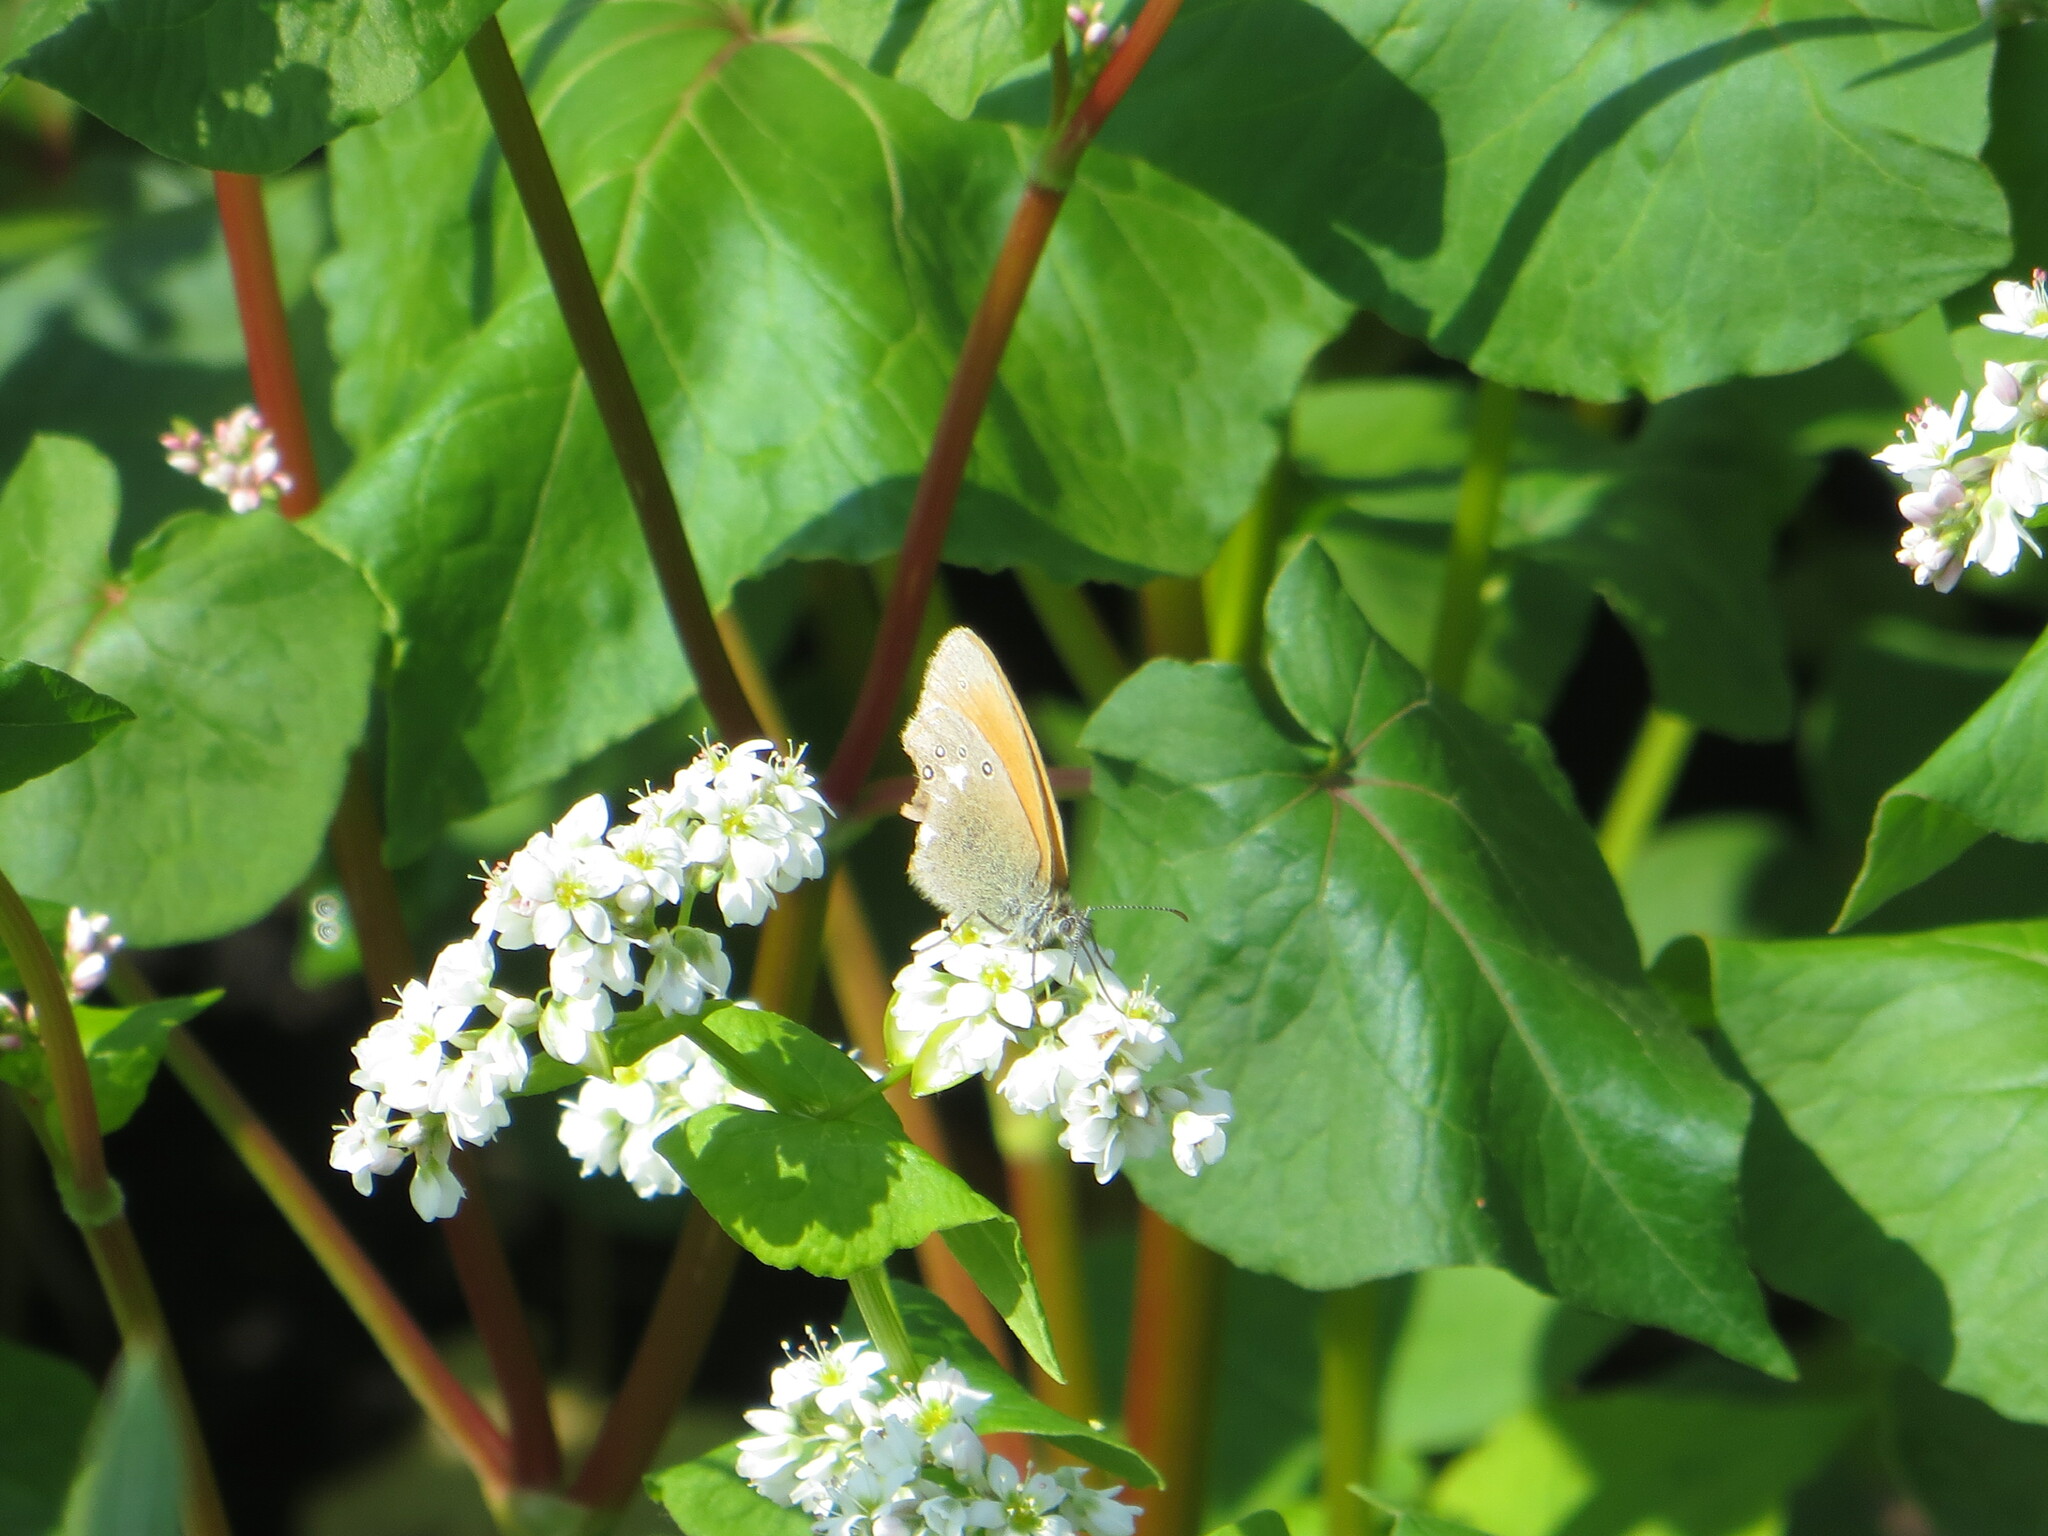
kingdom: Animalia
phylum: Arthropoda
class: Insecta
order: Lepidoptera
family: Nymphalidae
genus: Coenonympha
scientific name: Coenonympha iphis
